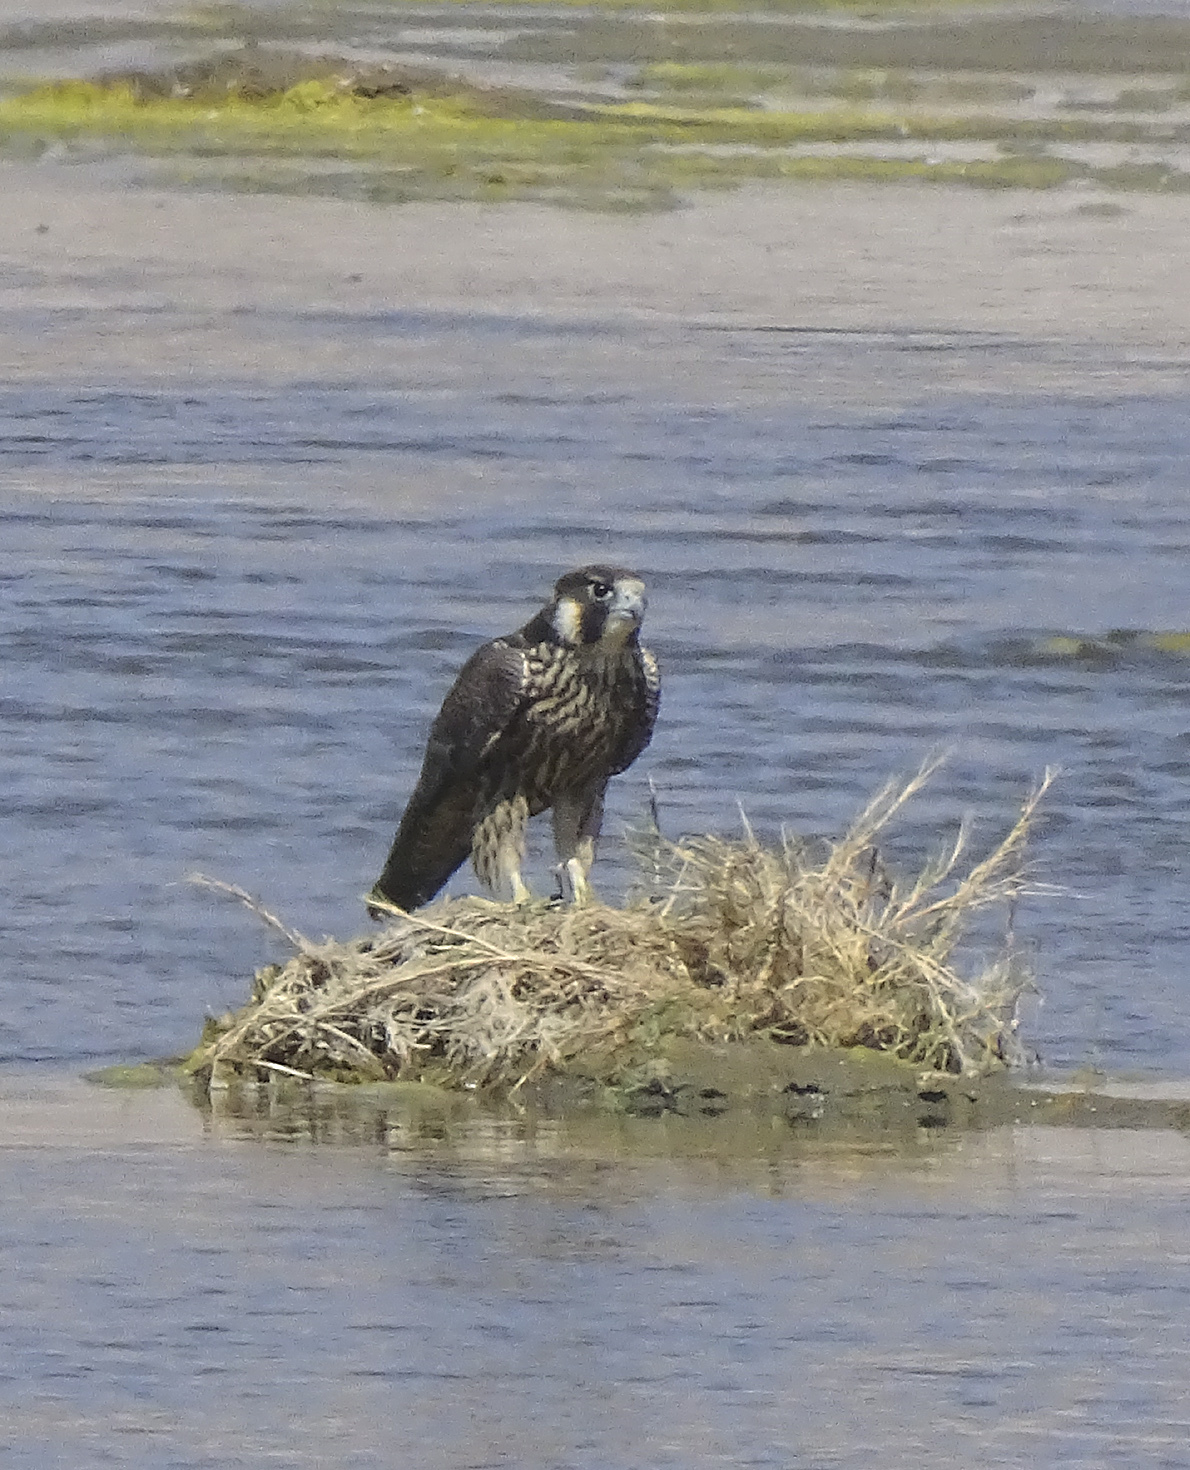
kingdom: Animalia
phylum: Chordata
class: Aves
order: Falconiformes
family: Falconidae
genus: Falco
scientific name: Falco peregrinus
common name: Peregrine falcon
